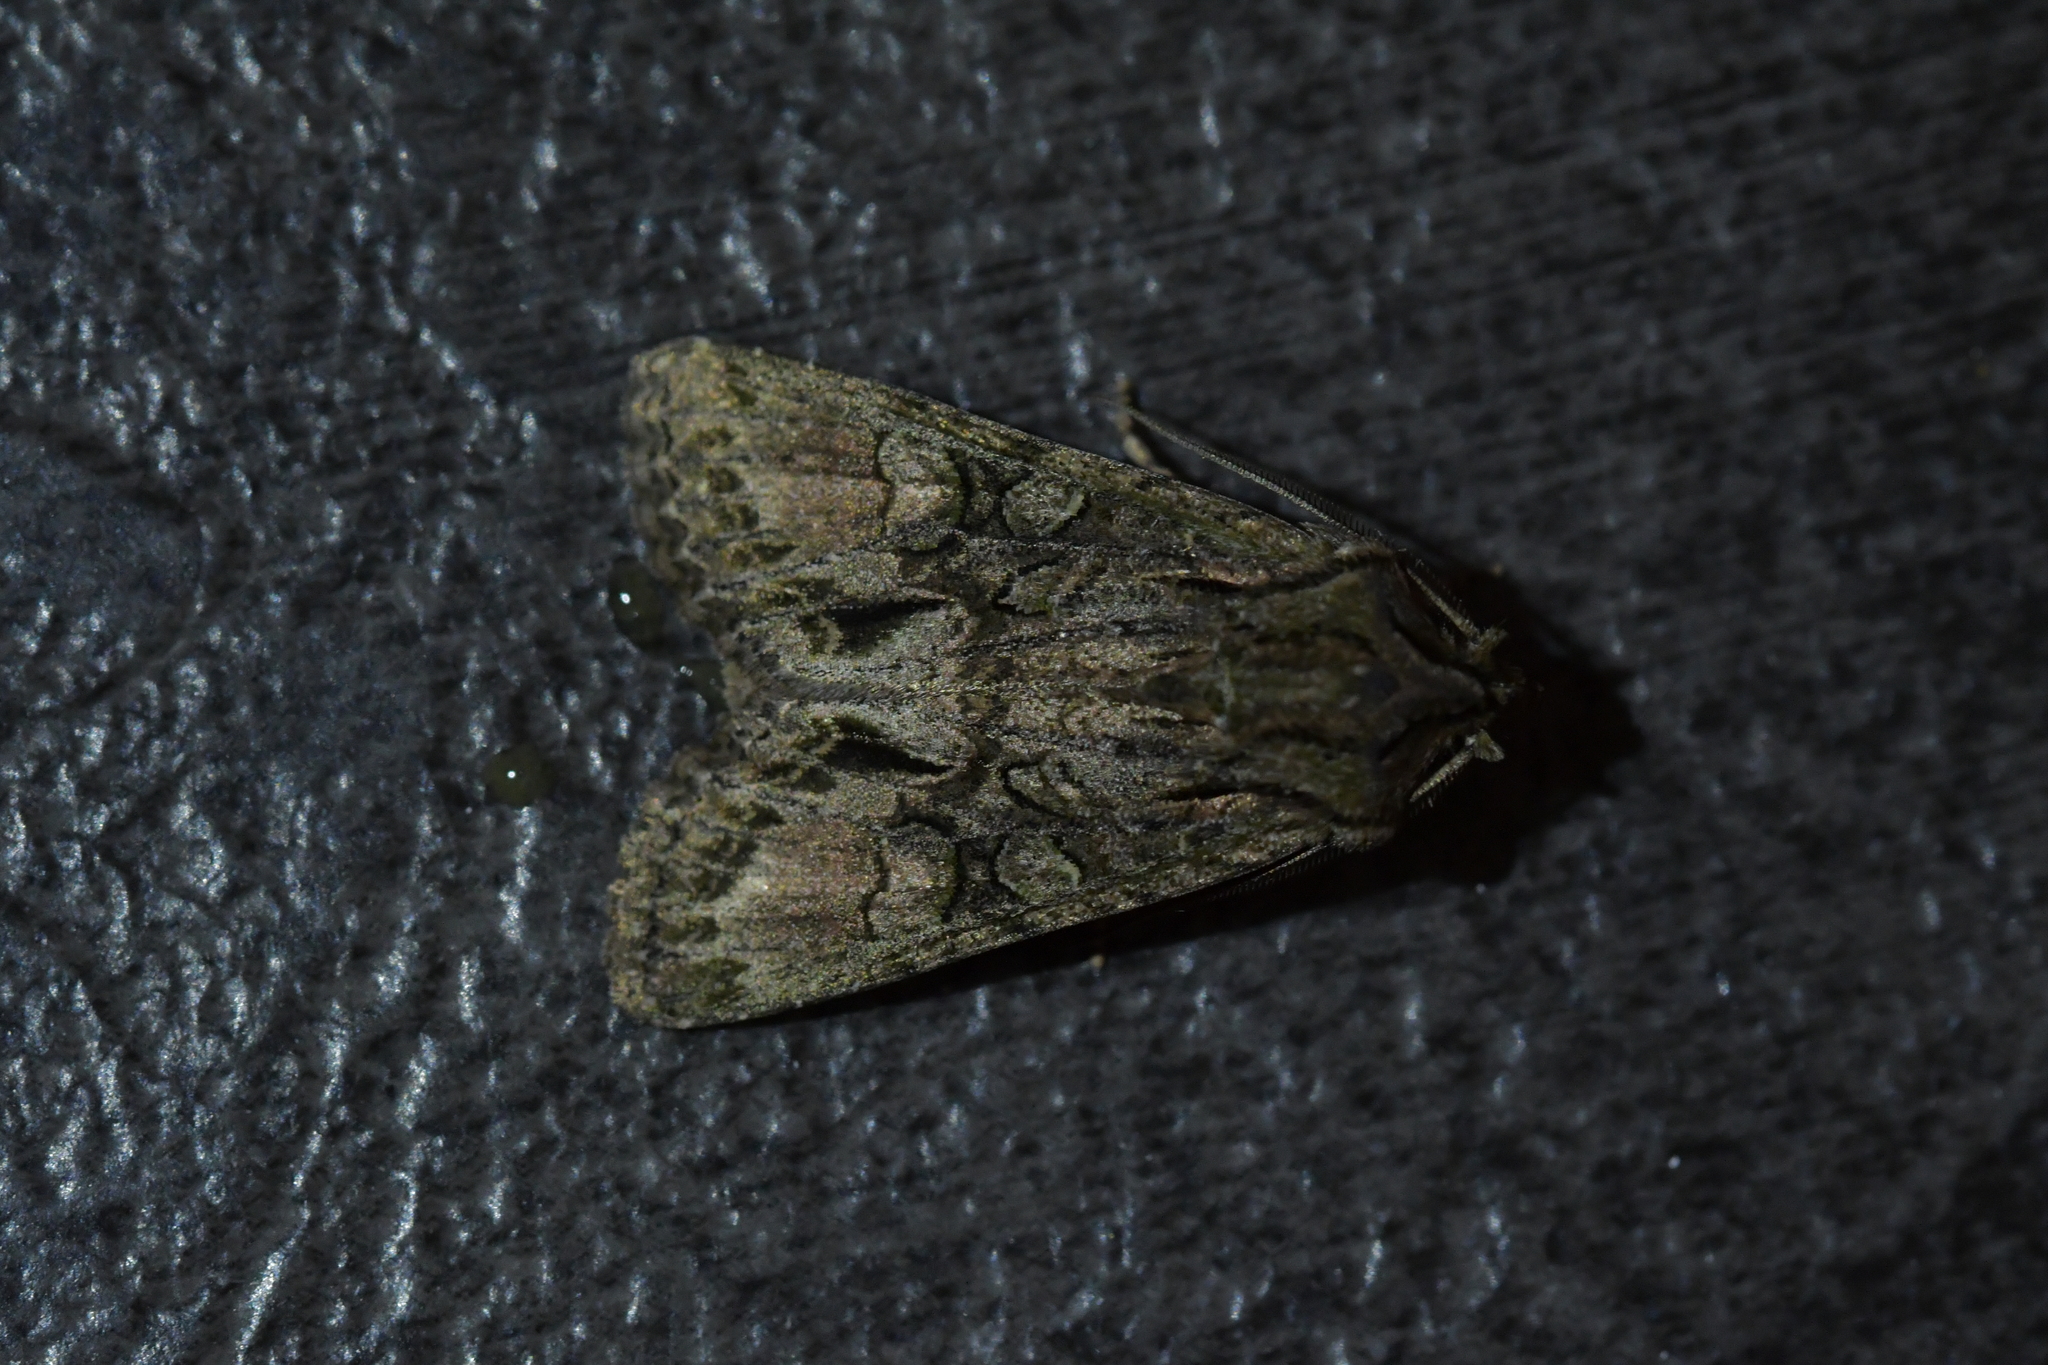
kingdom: Animalia
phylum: Arthropoda
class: Insecta
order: Lepidoptera
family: Noctuidae
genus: Ichneutica
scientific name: Ichneutica mutans
